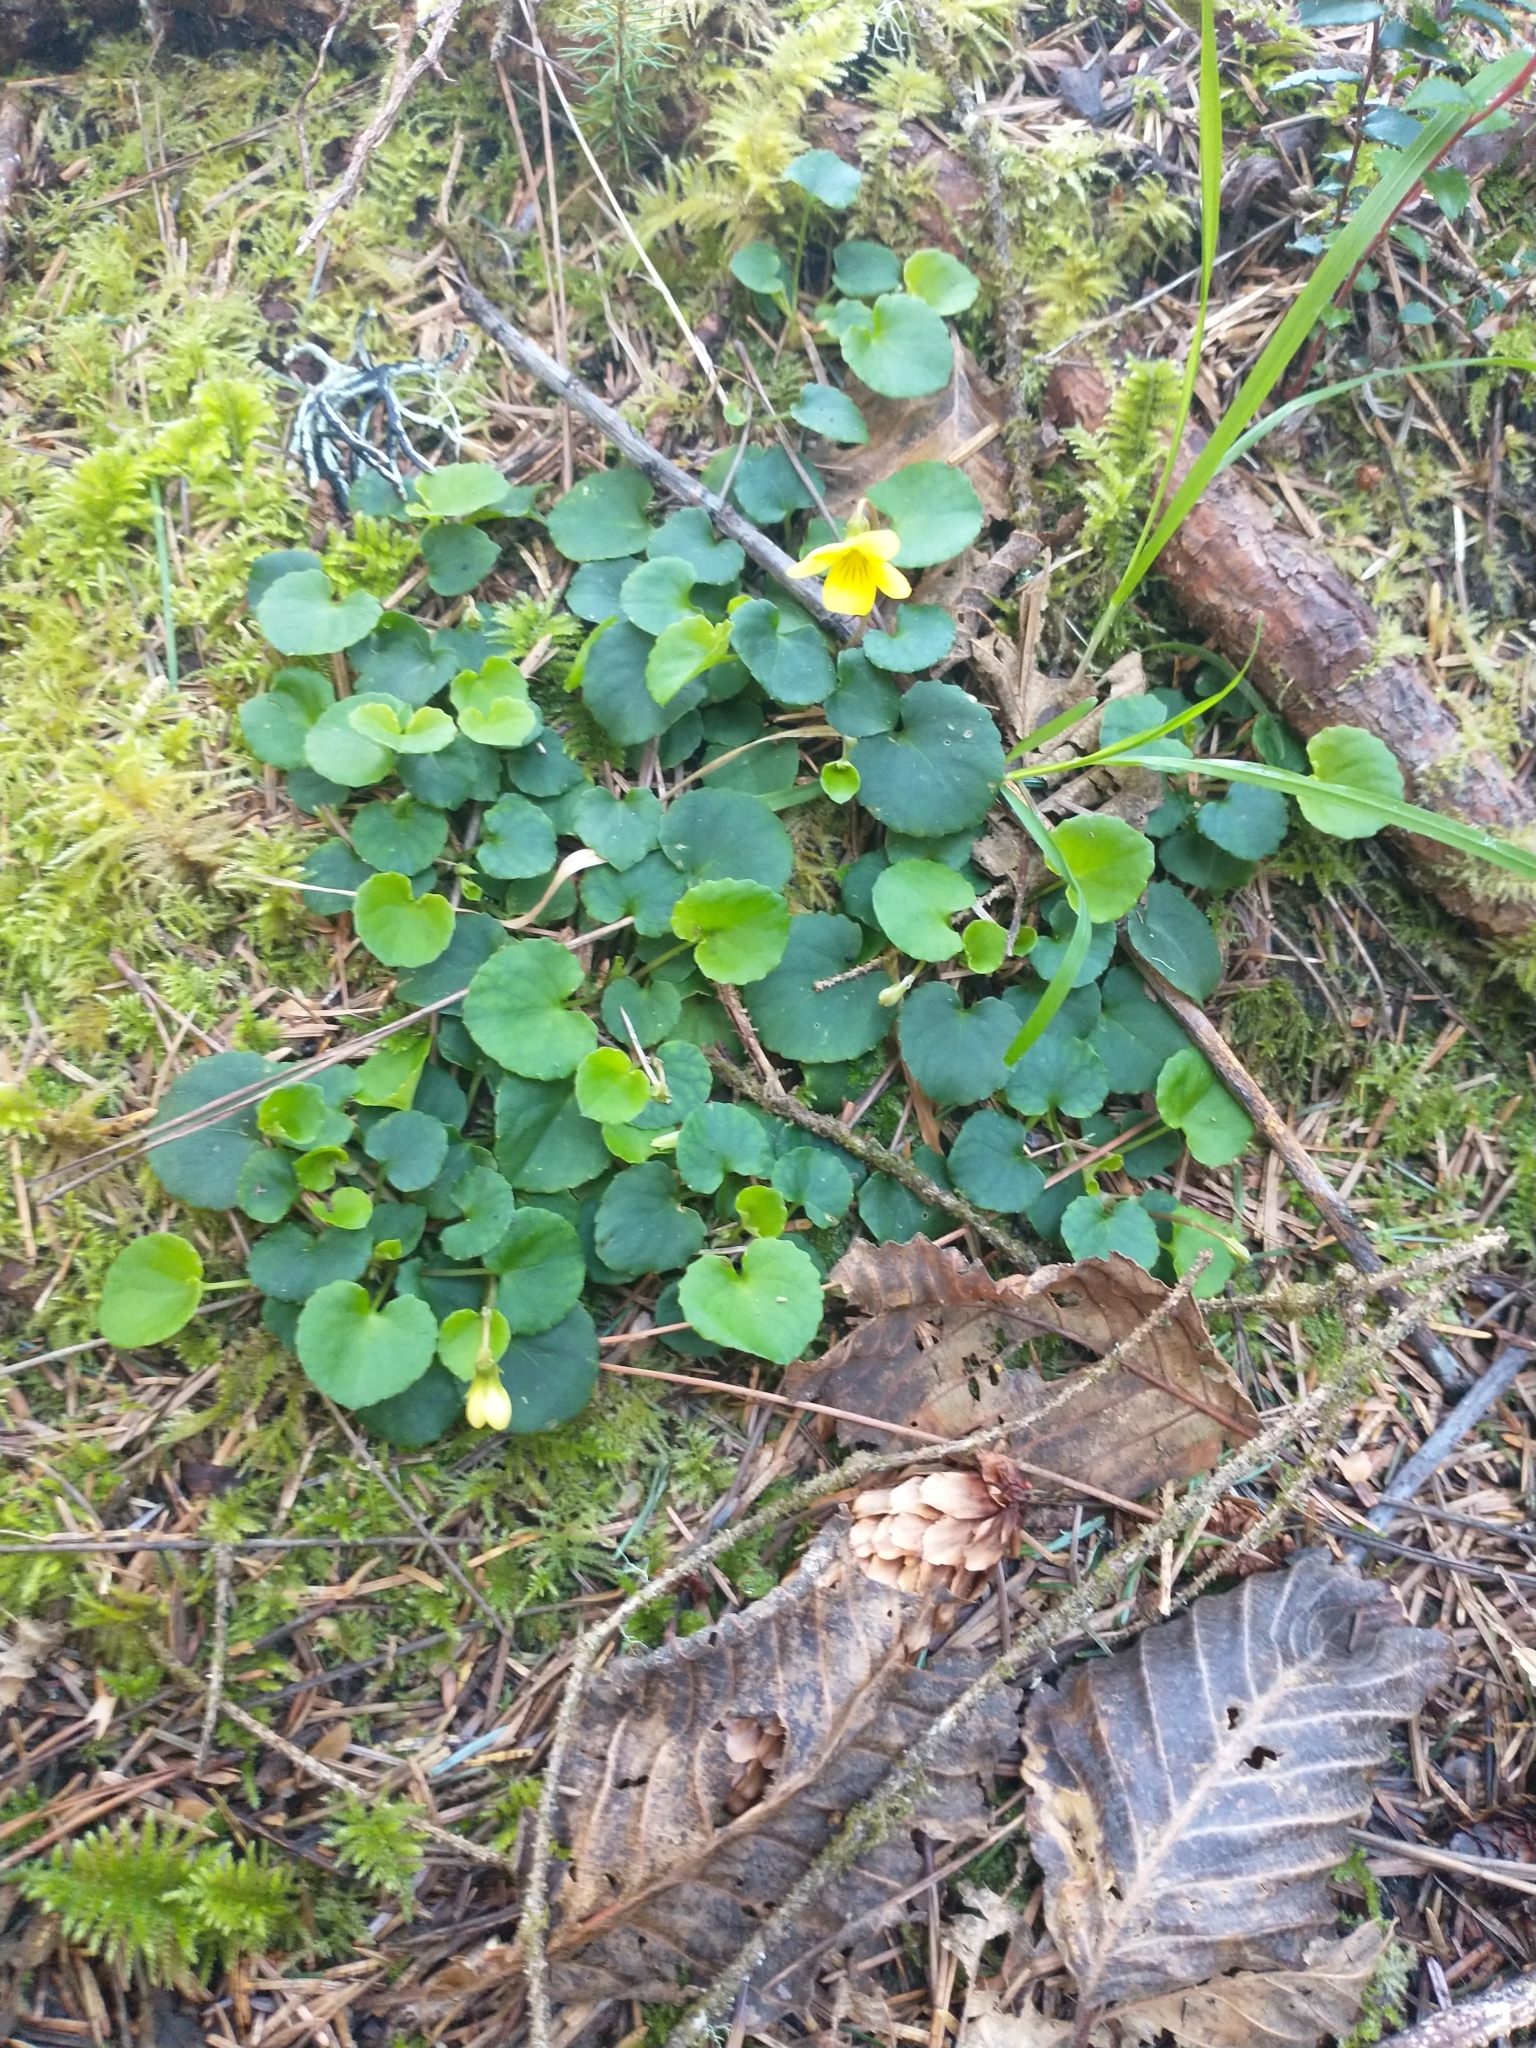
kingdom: Plantae
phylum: Tracheophyta
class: Magnoliopsida
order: Malpighiales
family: Violaceae
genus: Viola
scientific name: Viola sempervirens
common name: Evergreen violet
